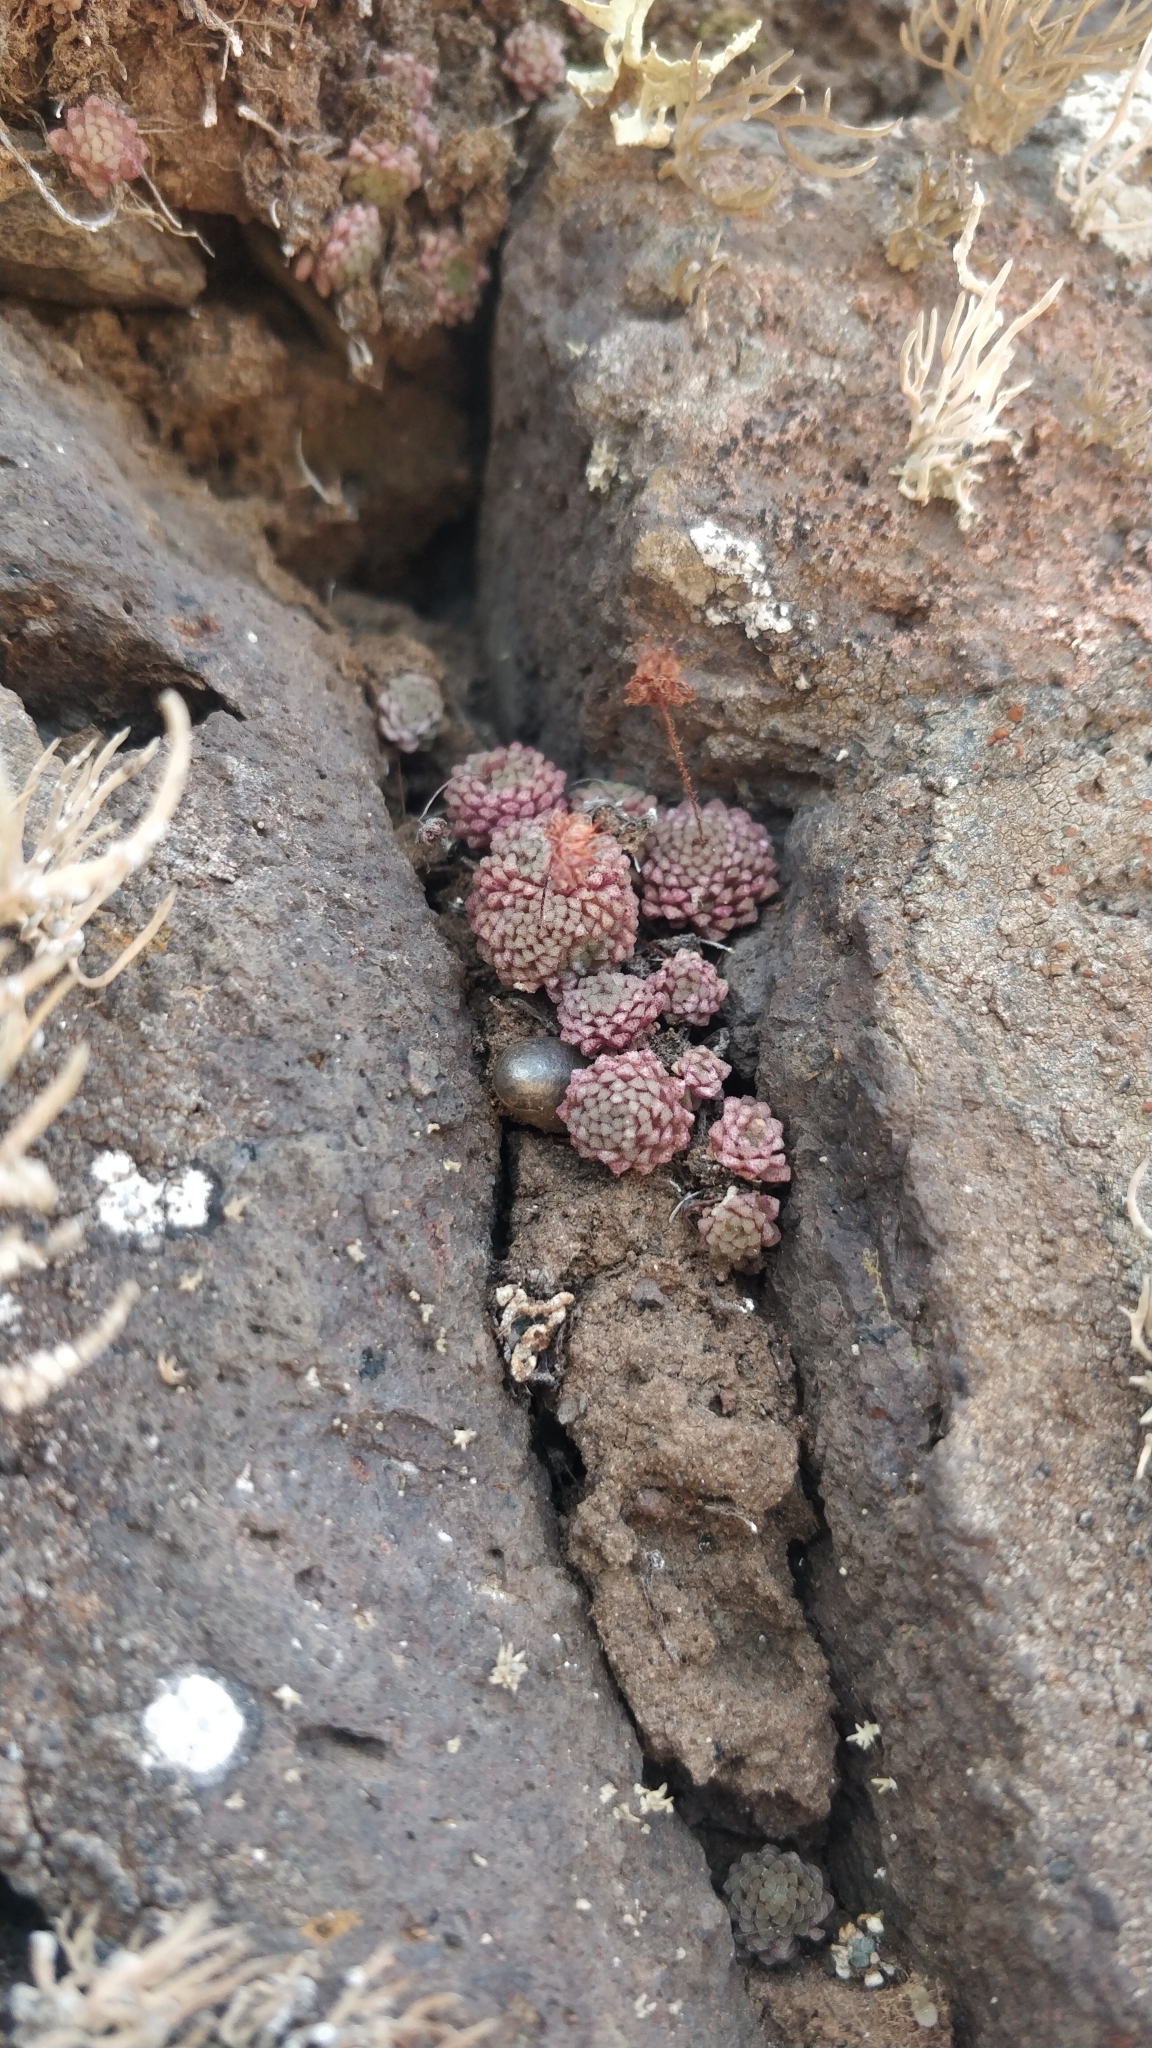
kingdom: Plantae
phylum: Tracheophyta
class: Magnoliopsida
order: Saxifragales
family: Crassulaceae
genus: Monanthes
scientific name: Monanthes polyphylla
